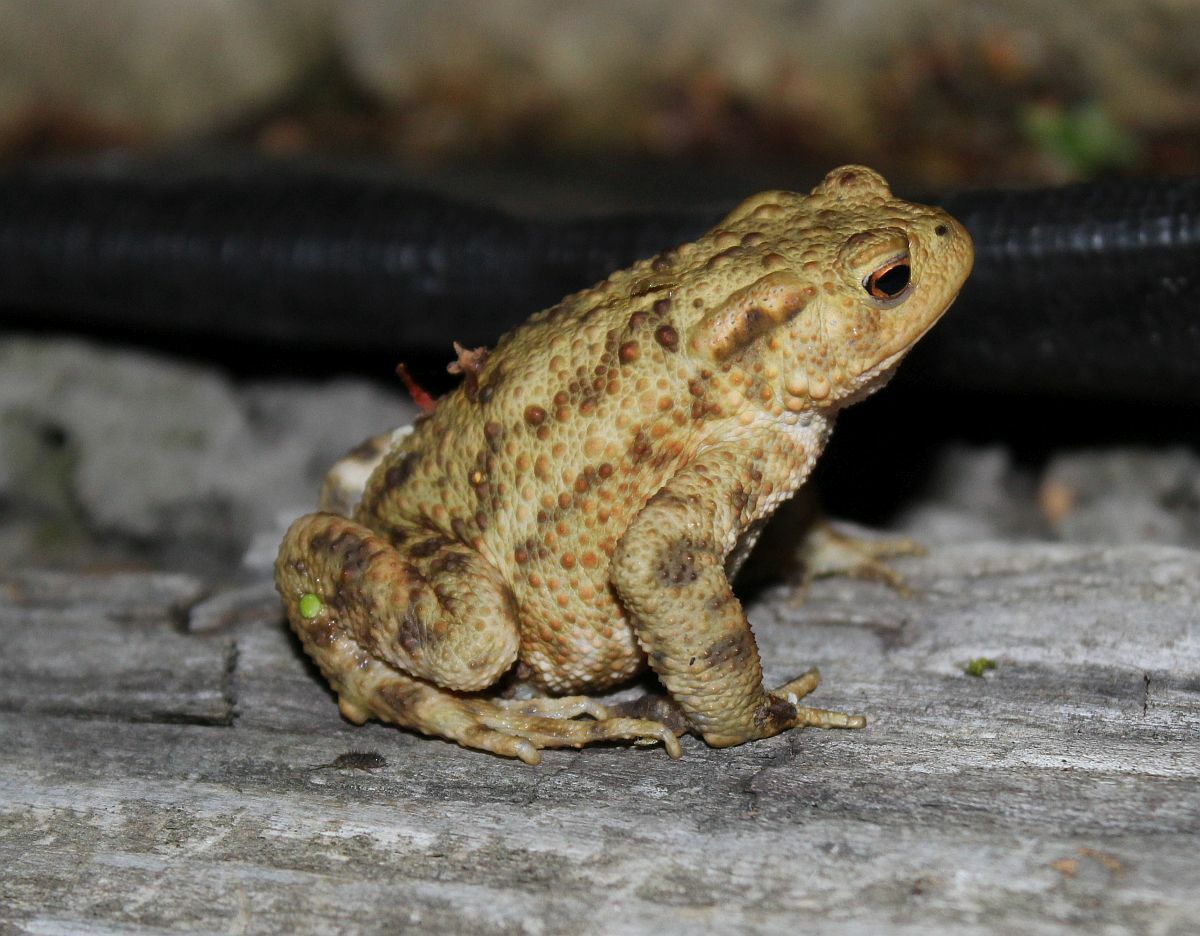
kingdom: Animalia
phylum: Chordata
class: Amphibia
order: Anura
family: Bufonidae
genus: Bufo
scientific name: Bufo bufo
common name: Common toad
